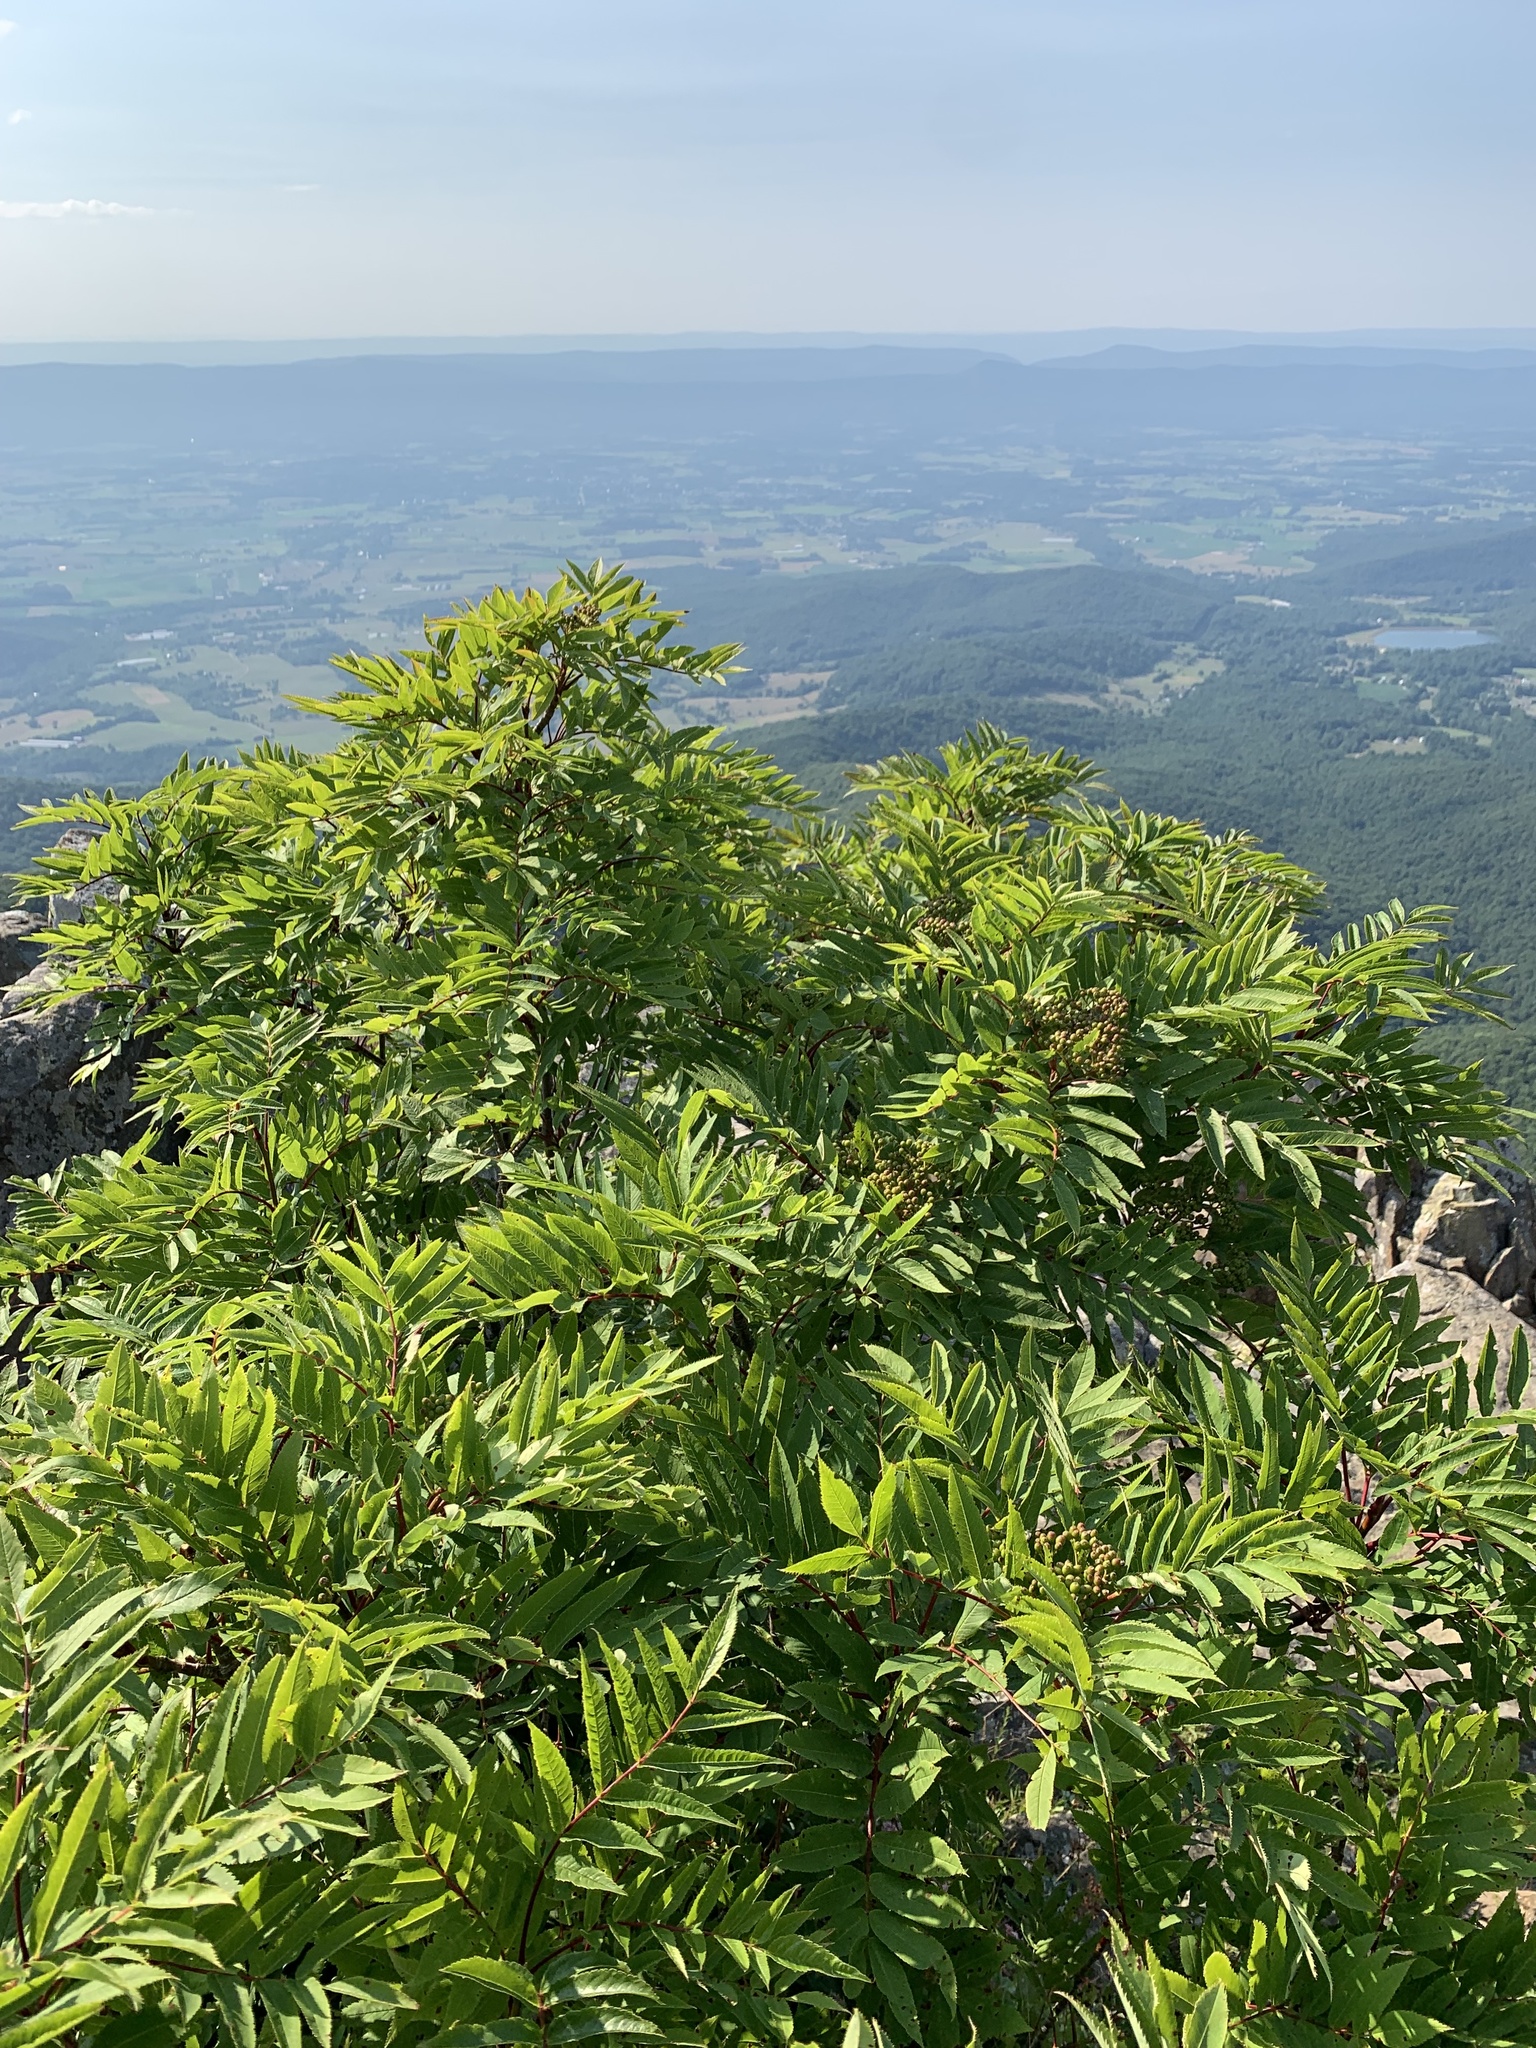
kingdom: Plantae
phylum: Tracheophyta
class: Magnoliopsida
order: Rosales
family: Rosaceae
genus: Sorbus
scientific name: Sorbus americana
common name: American mountain-ash
